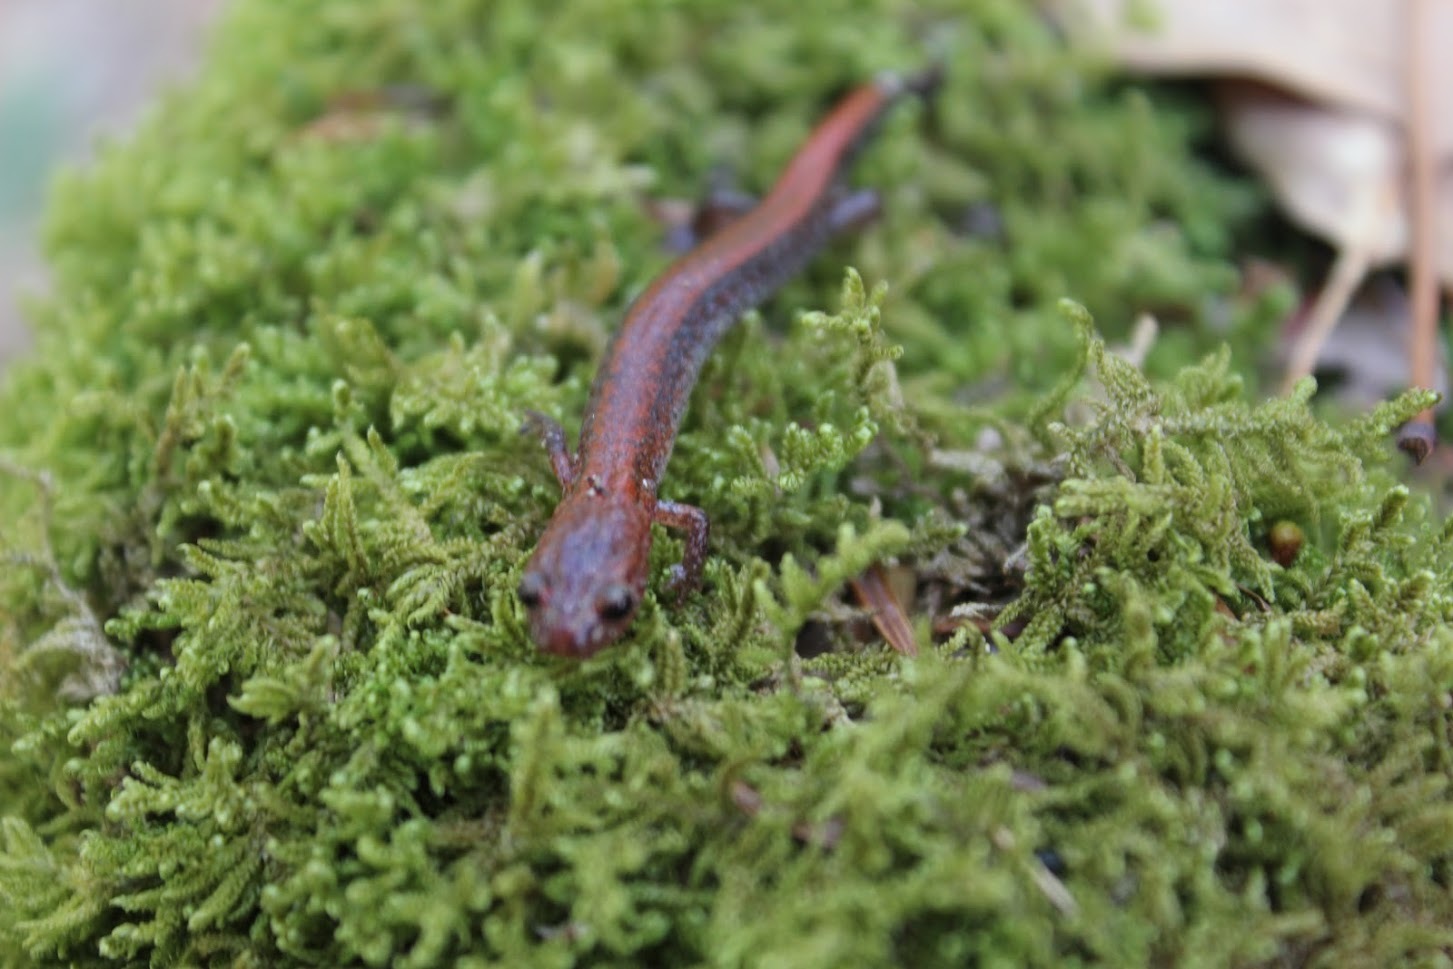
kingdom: Animalia
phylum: Chordata
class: Amphibia
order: Caudata
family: Plethodontidae
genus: Plethodon
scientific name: Plethodon cinereus
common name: Redback salamander
